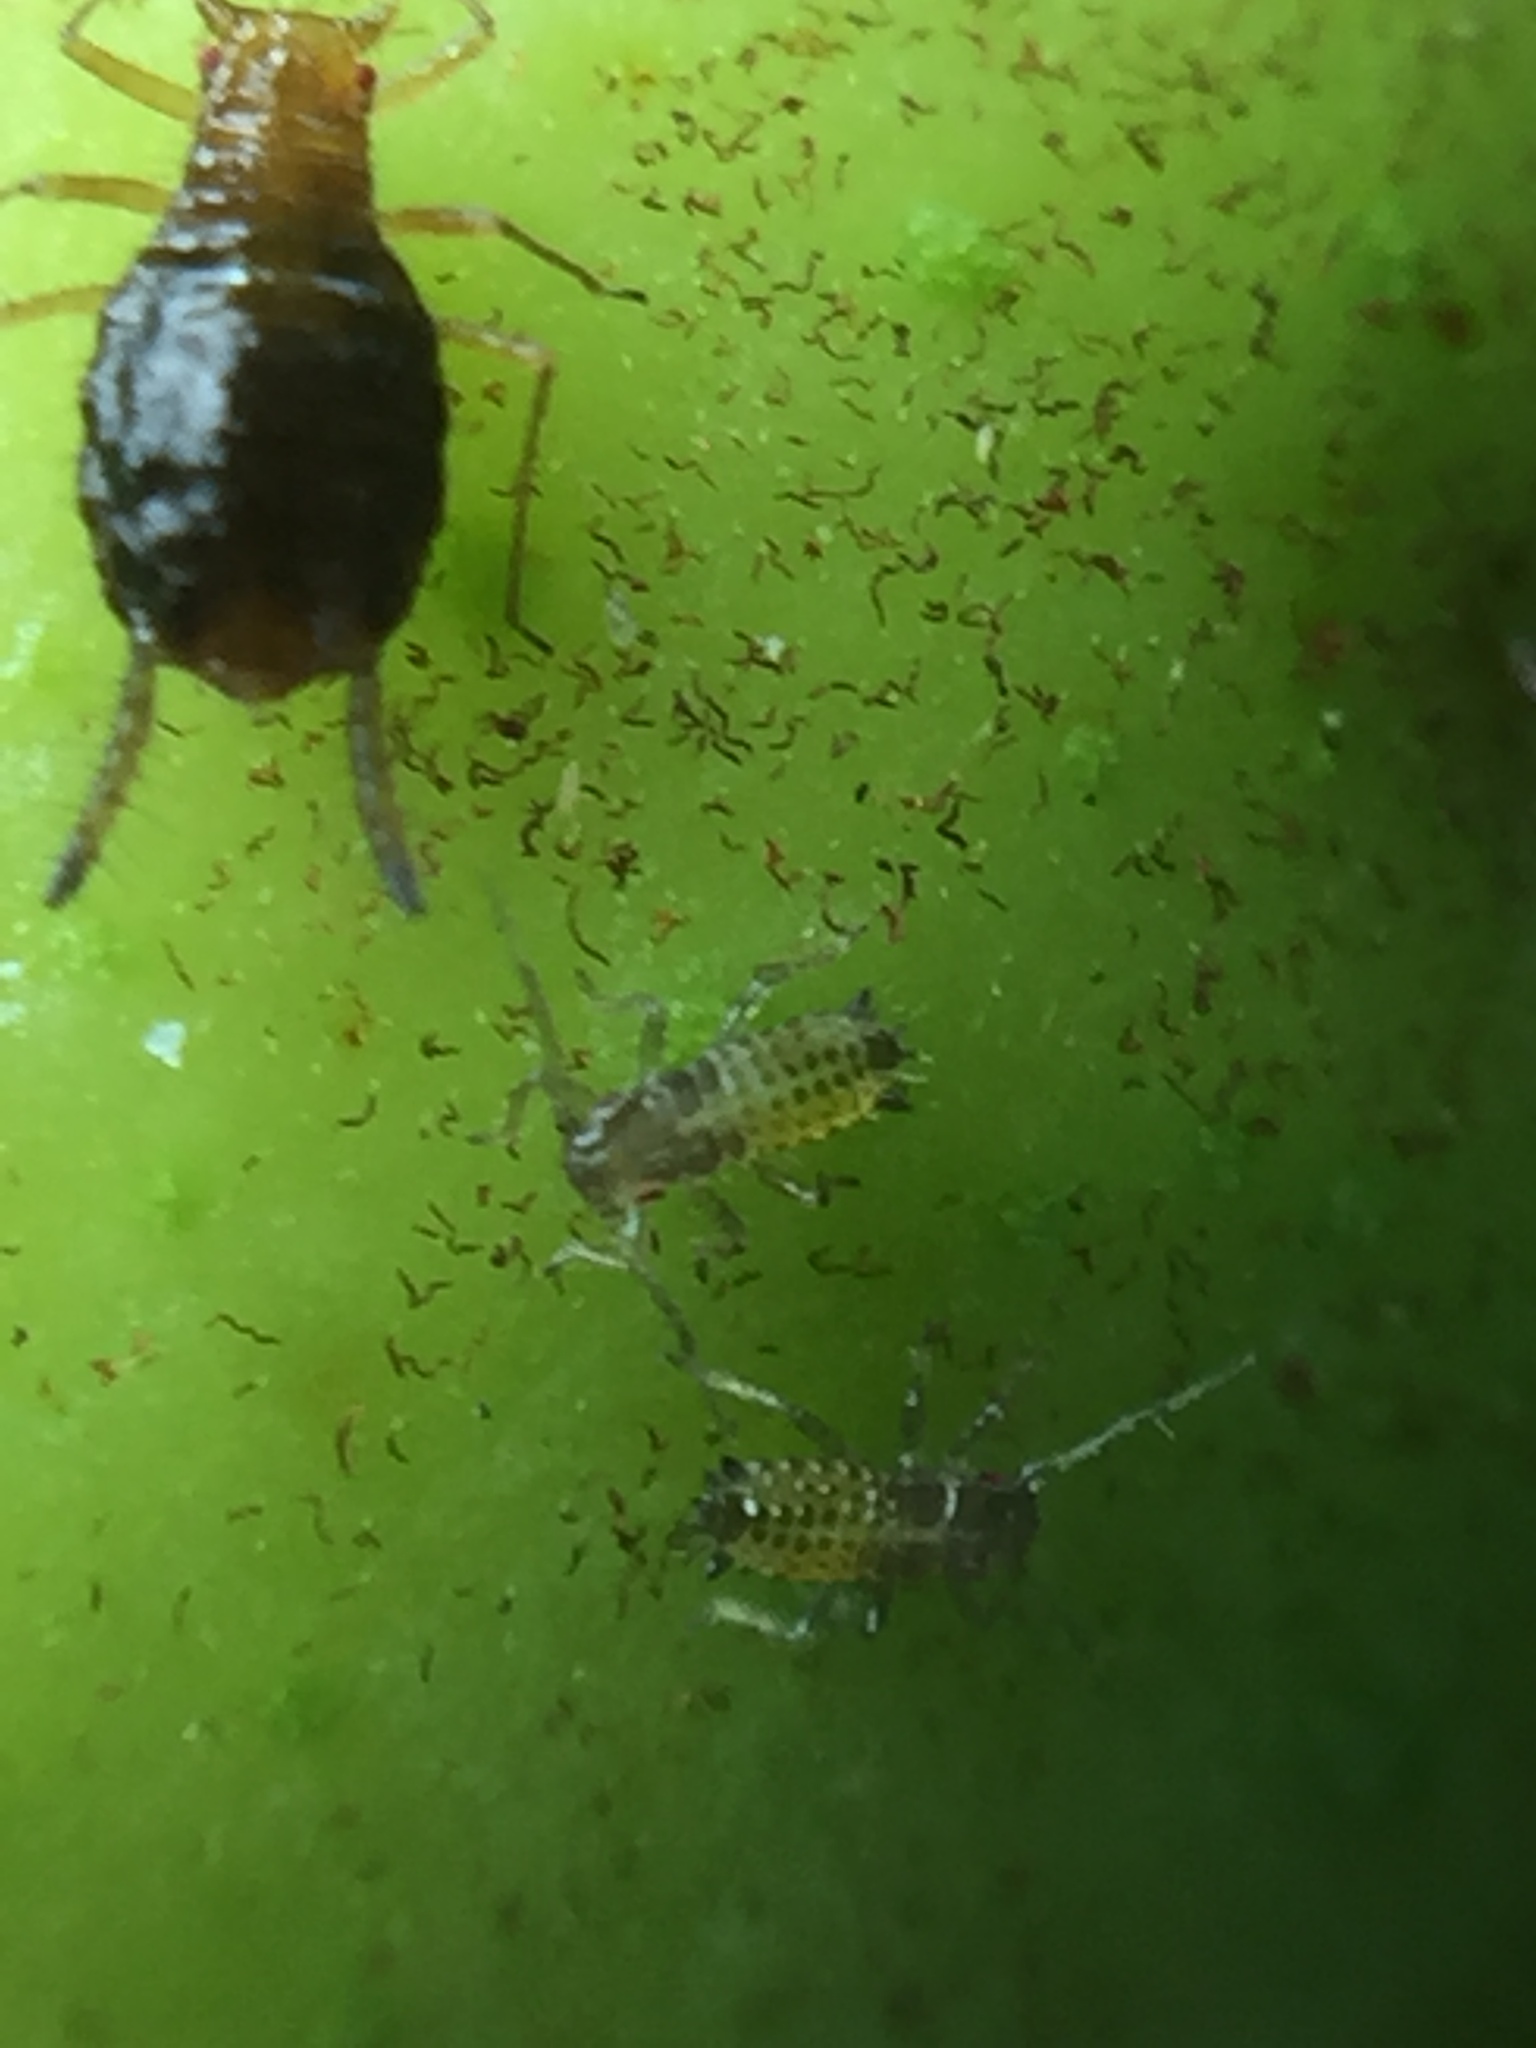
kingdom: Animalia
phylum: Arthropoda
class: Insecta
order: Hemiptera
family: Aphididae
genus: Greenidea
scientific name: Greenidea ficicola
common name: Aphid
